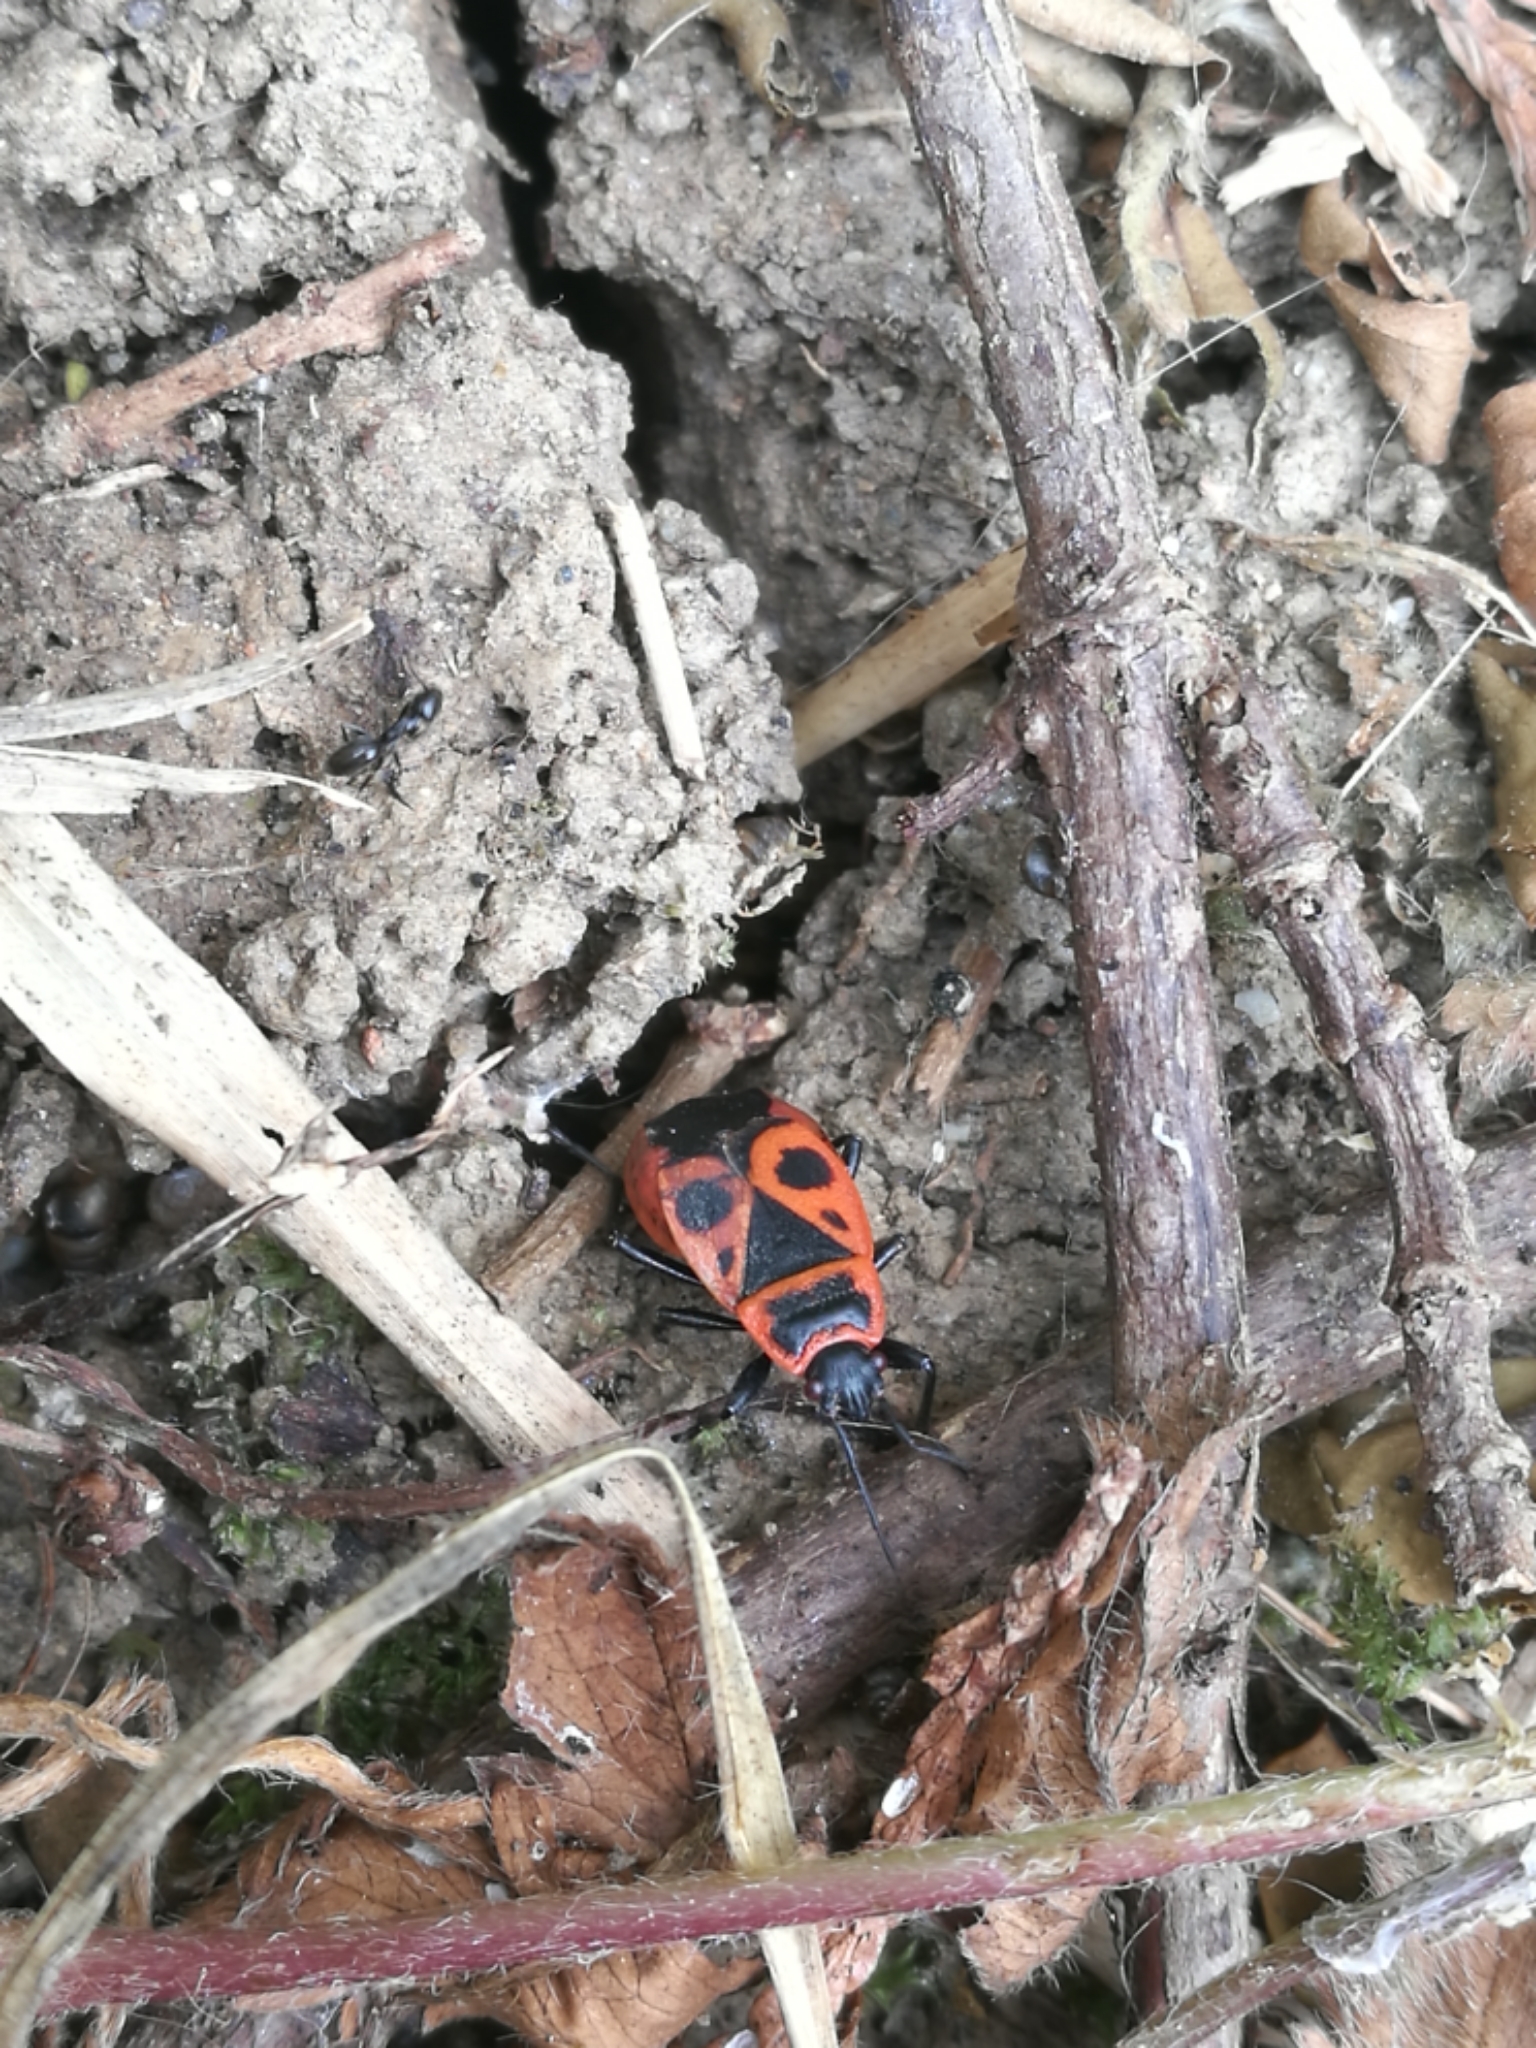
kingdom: Animalia
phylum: Arthropoda
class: Insecta
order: Hemiptera
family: Pyrrhocoridae
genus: Pyrrhocoris
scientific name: Pyrrhocoris apterus
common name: Firebug
